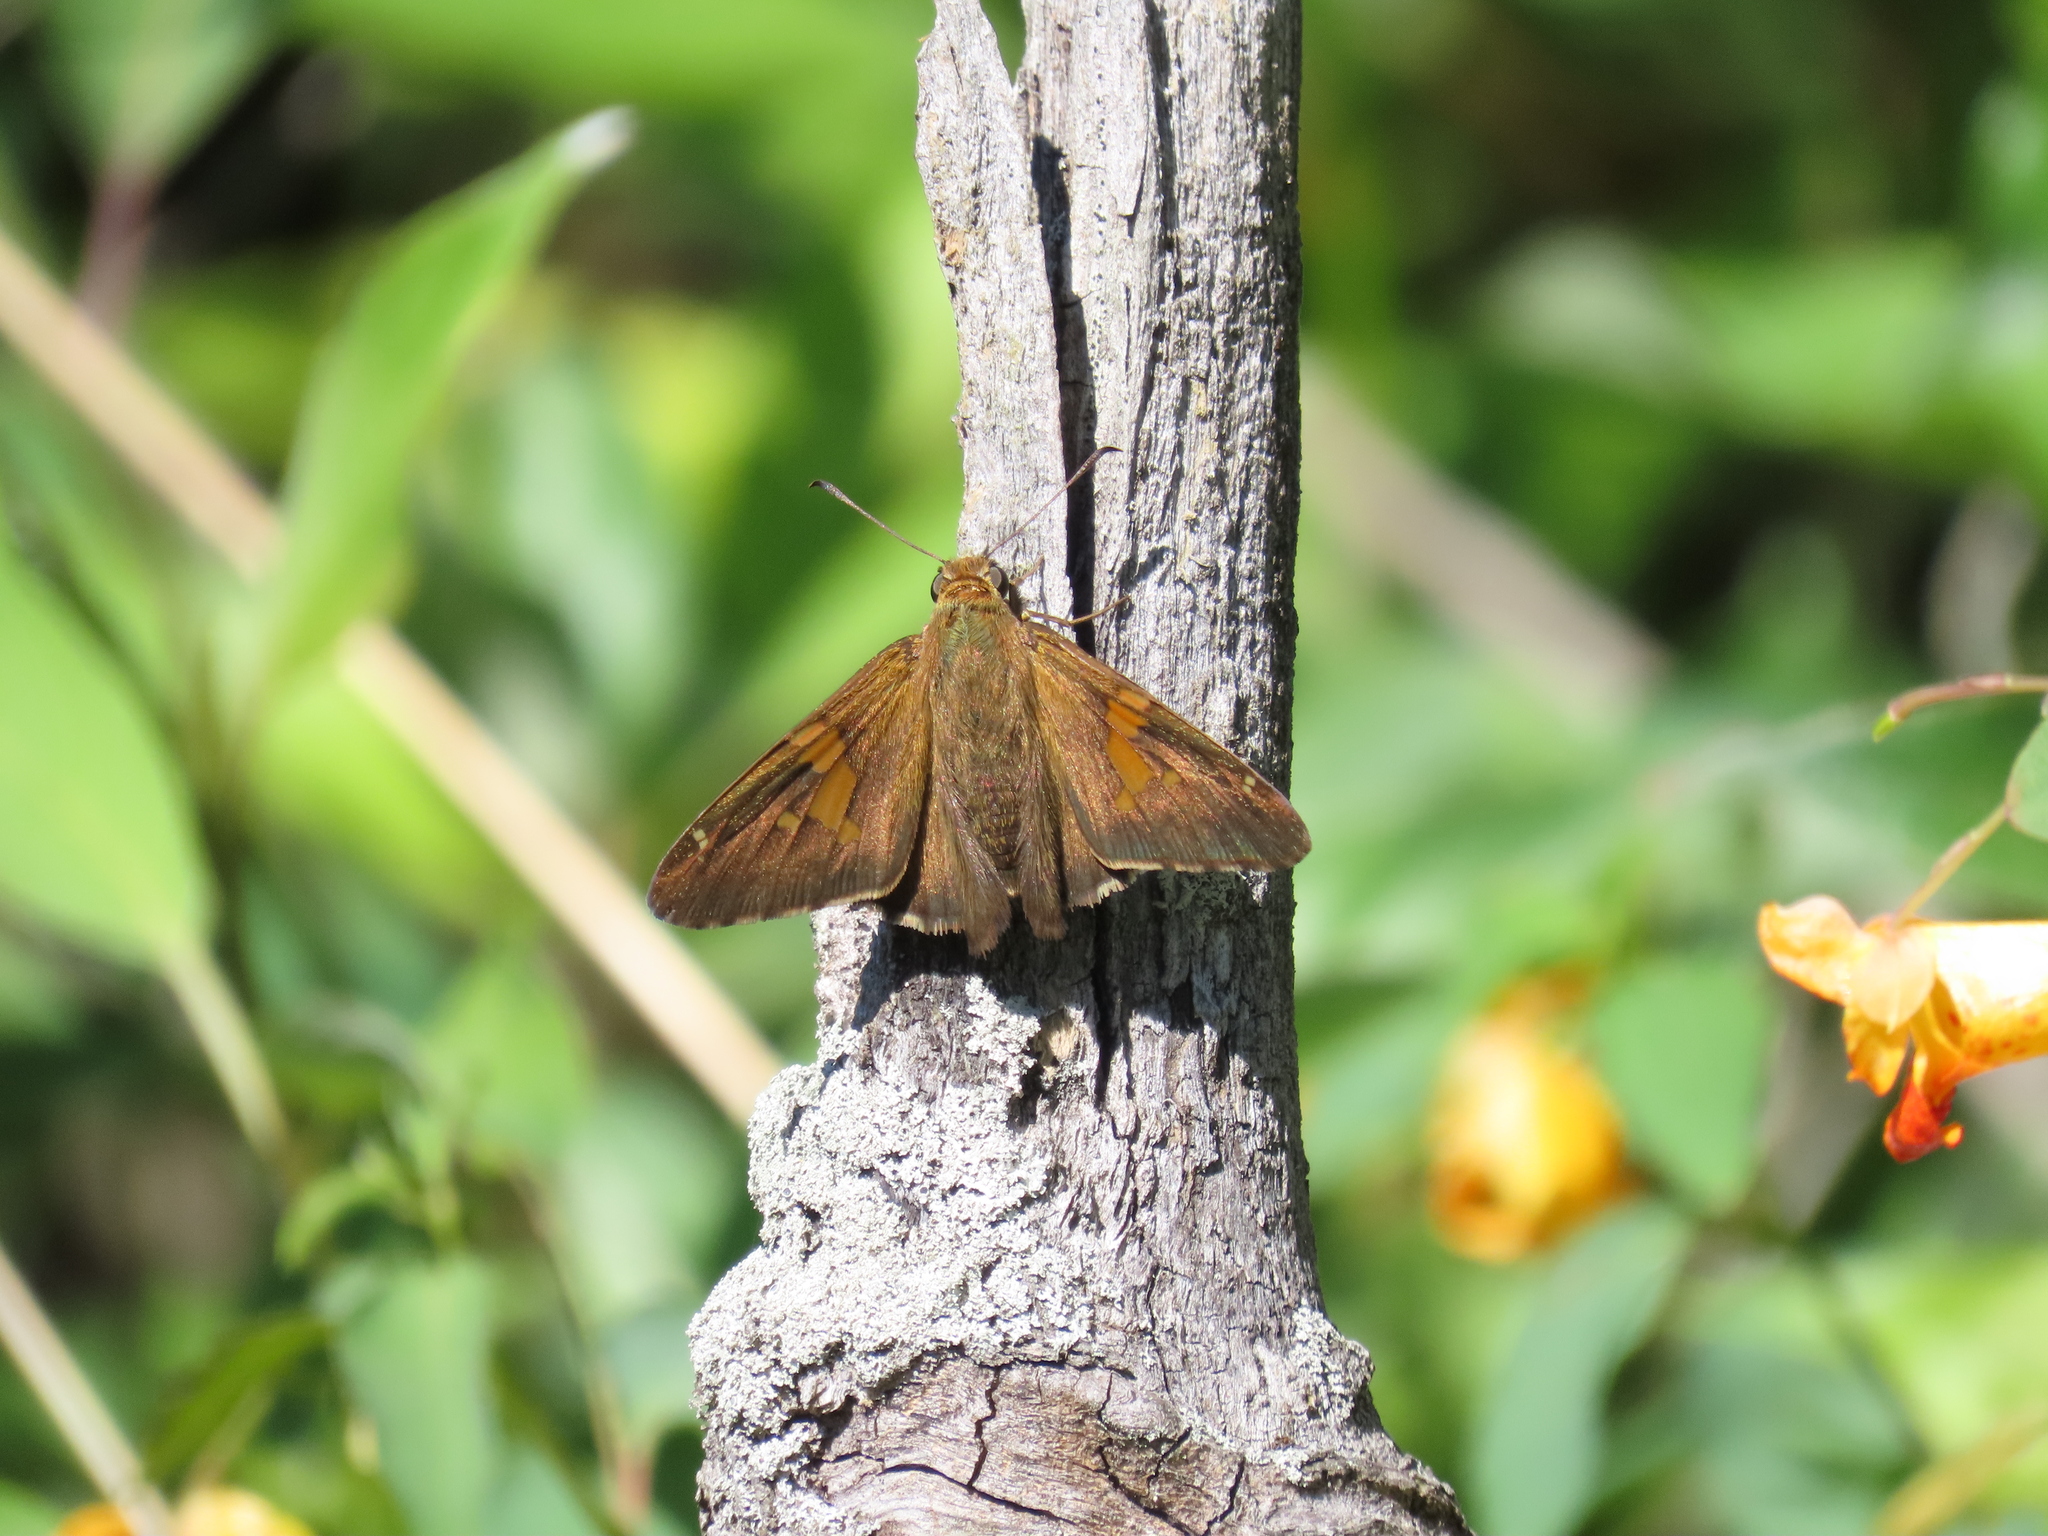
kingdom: Animalia
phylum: Arthropoda
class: Insecta
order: Lepidoptera
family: Hesperiidae
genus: Epargyreus
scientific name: Epargyreus clarus
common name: Silver-spotted skipper
